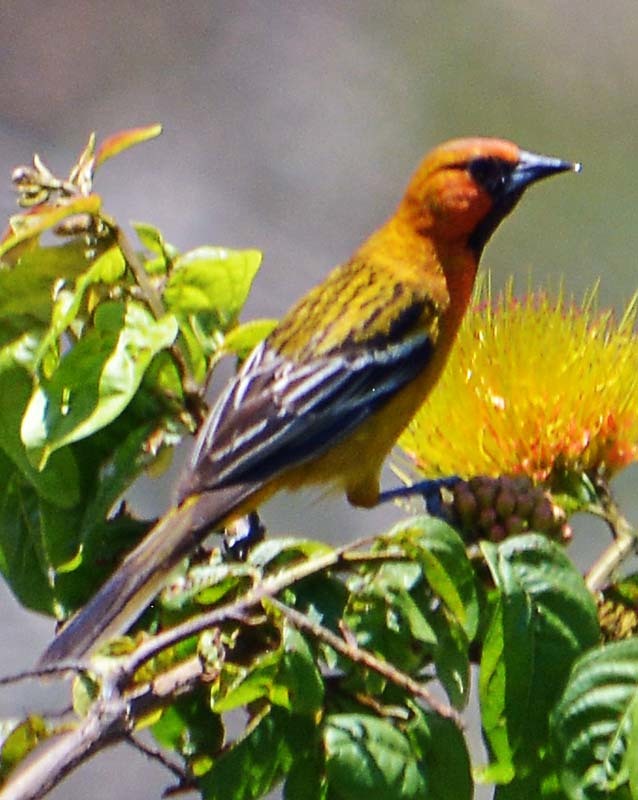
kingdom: Animalia
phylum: Chordata
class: Aves
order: Passeriformes
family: Icteridae
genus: Icterus
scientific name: Icterus pustulatus
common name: Streak-backed oriole
